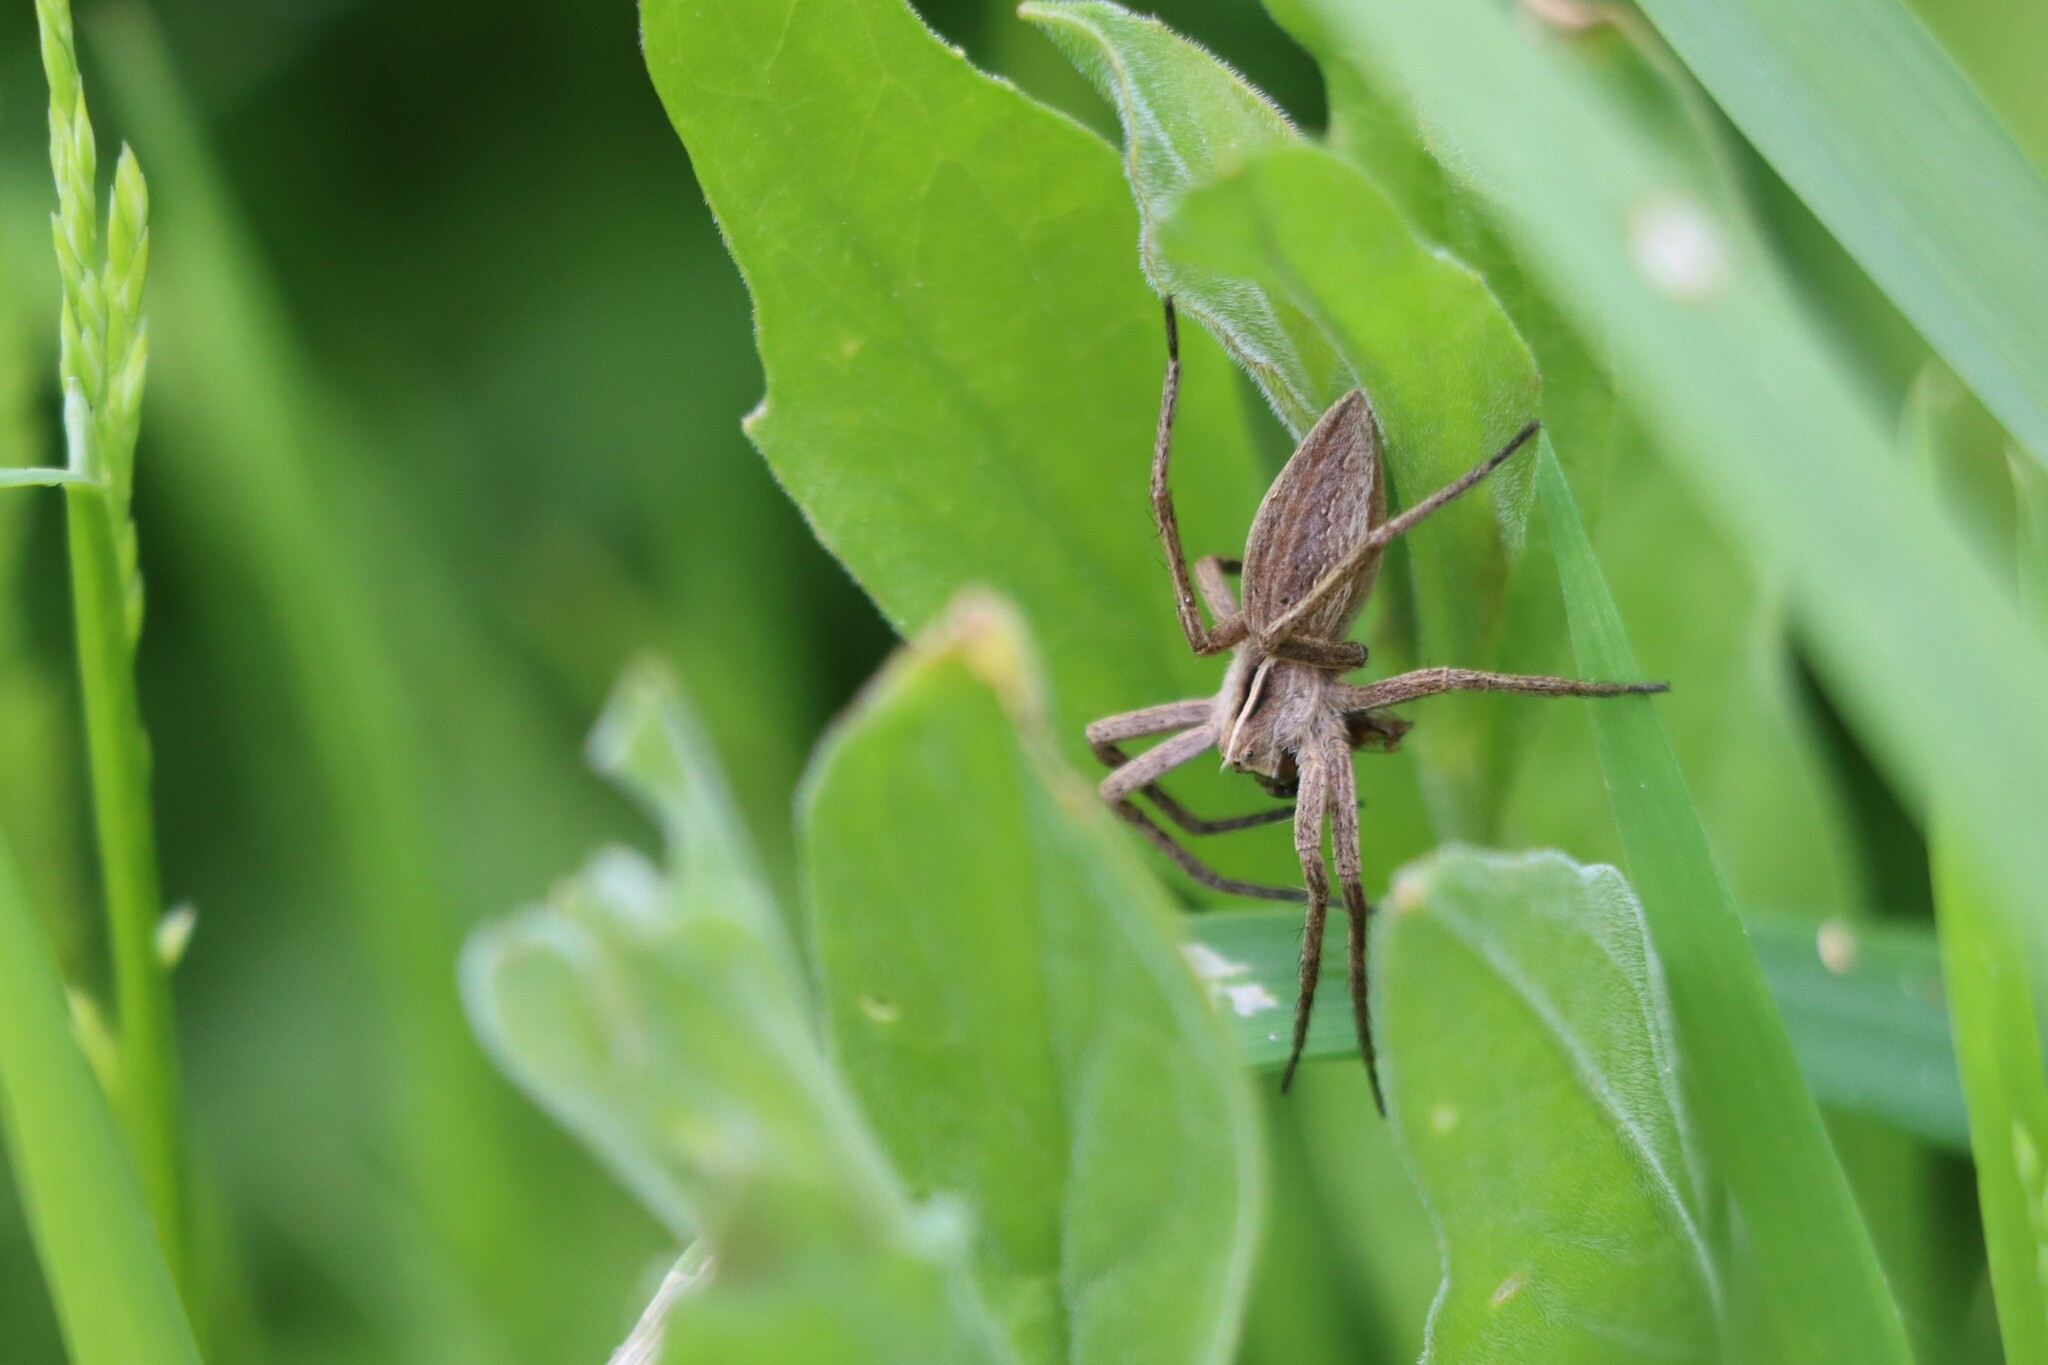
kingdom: Animalia
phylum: Arthropoda
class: Arachnida
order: Araneae
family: Pisauridae
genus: Pisaura
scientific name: Pisaura mirabilis
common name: Tent spider
